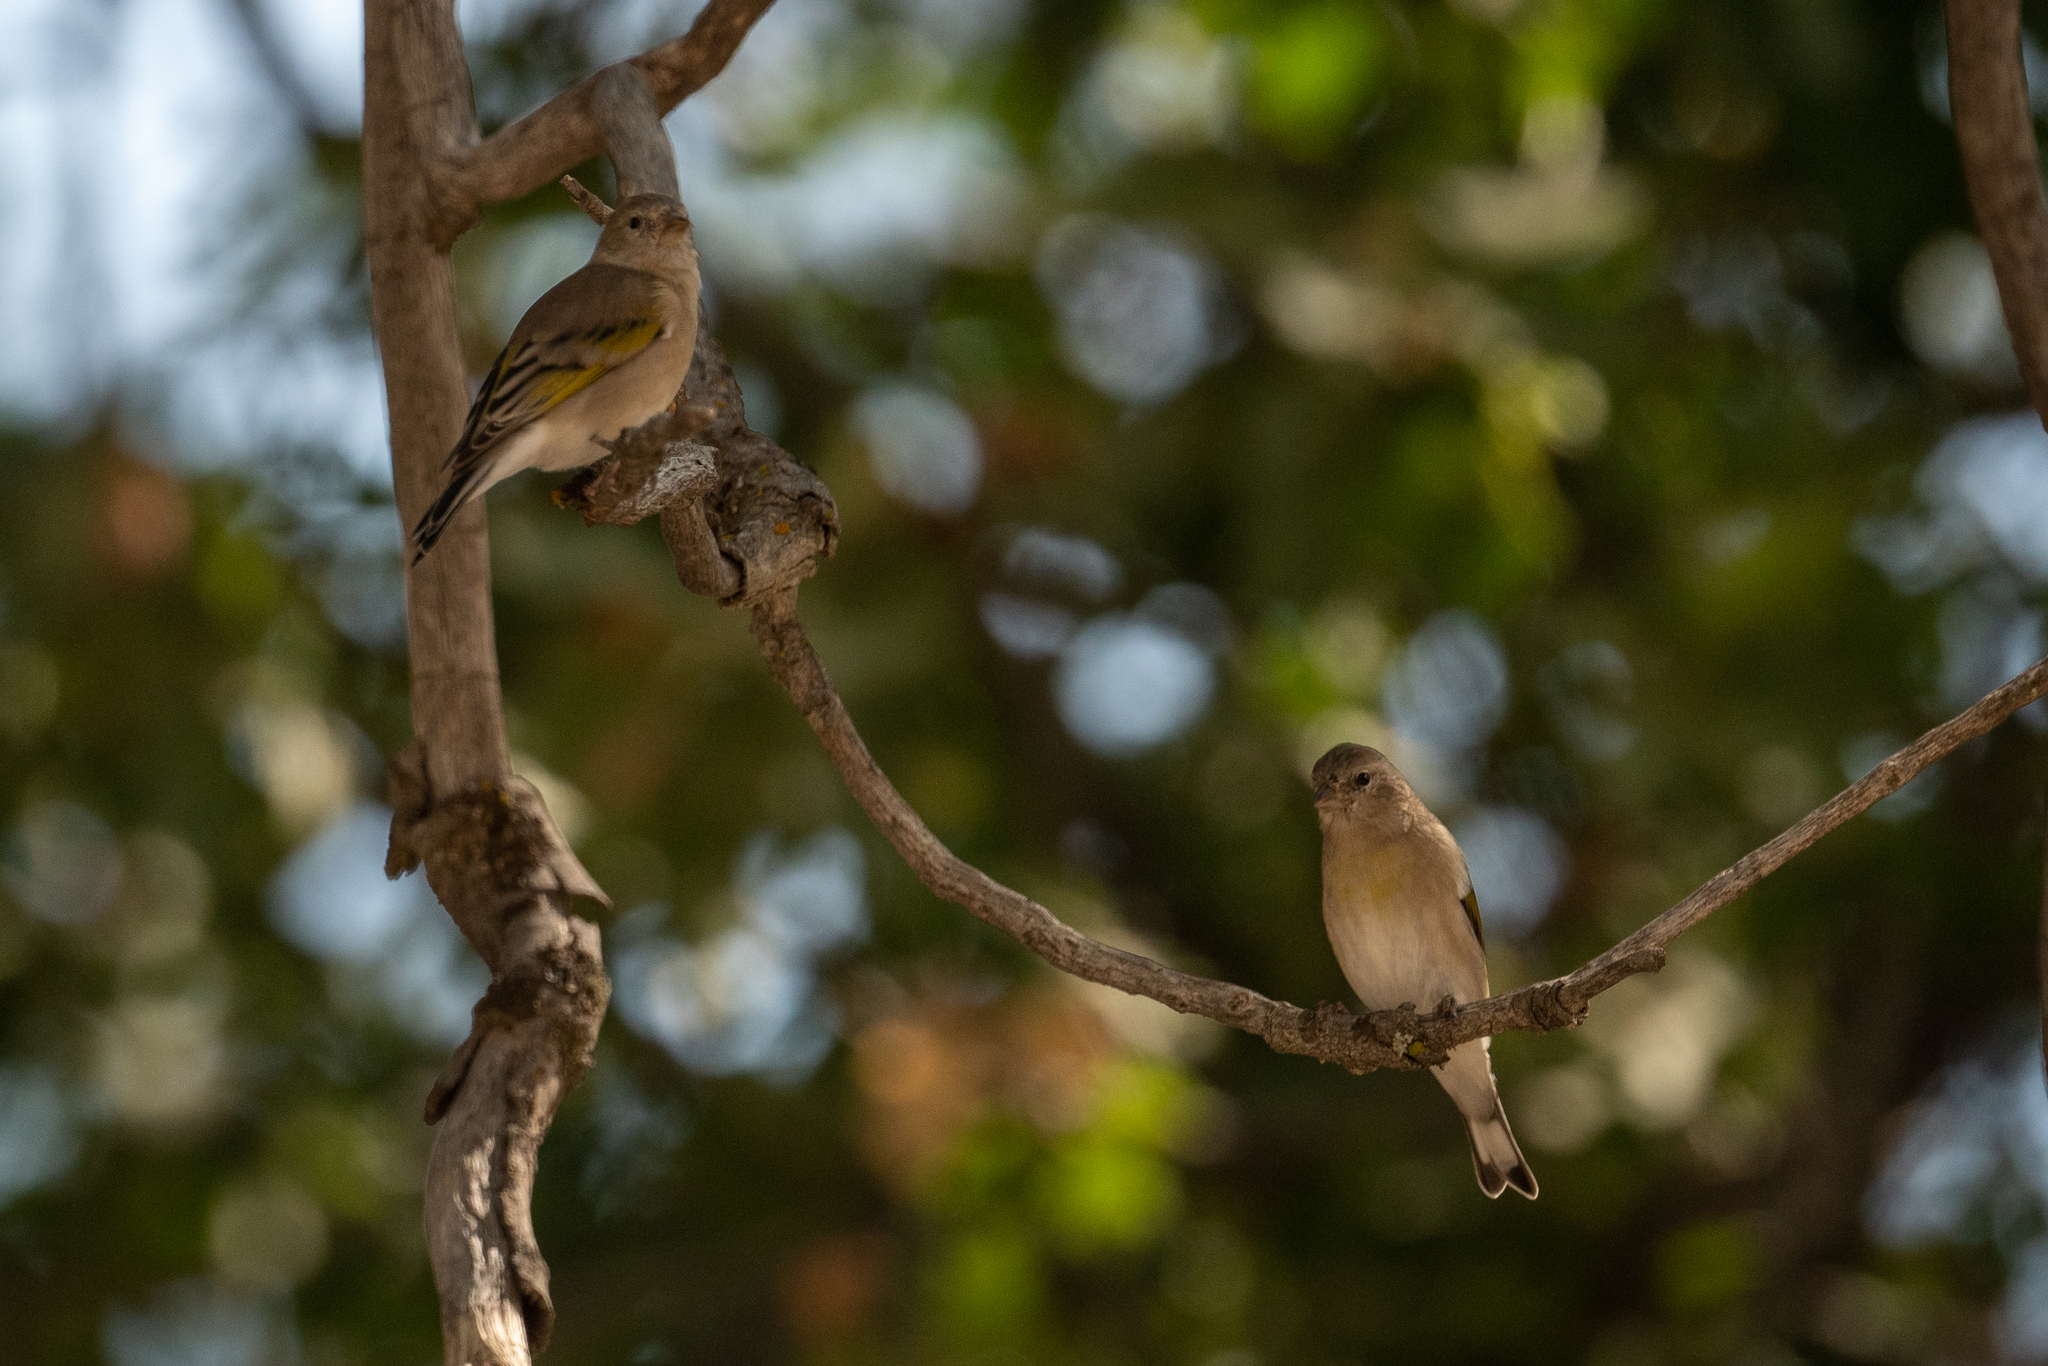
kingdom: Animalia
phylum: Chordata
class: Aves
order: Passeriformes
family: Fringillidae
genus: Spinus
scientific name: Spinus lawrencei
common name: Lawrence's goldfinch
